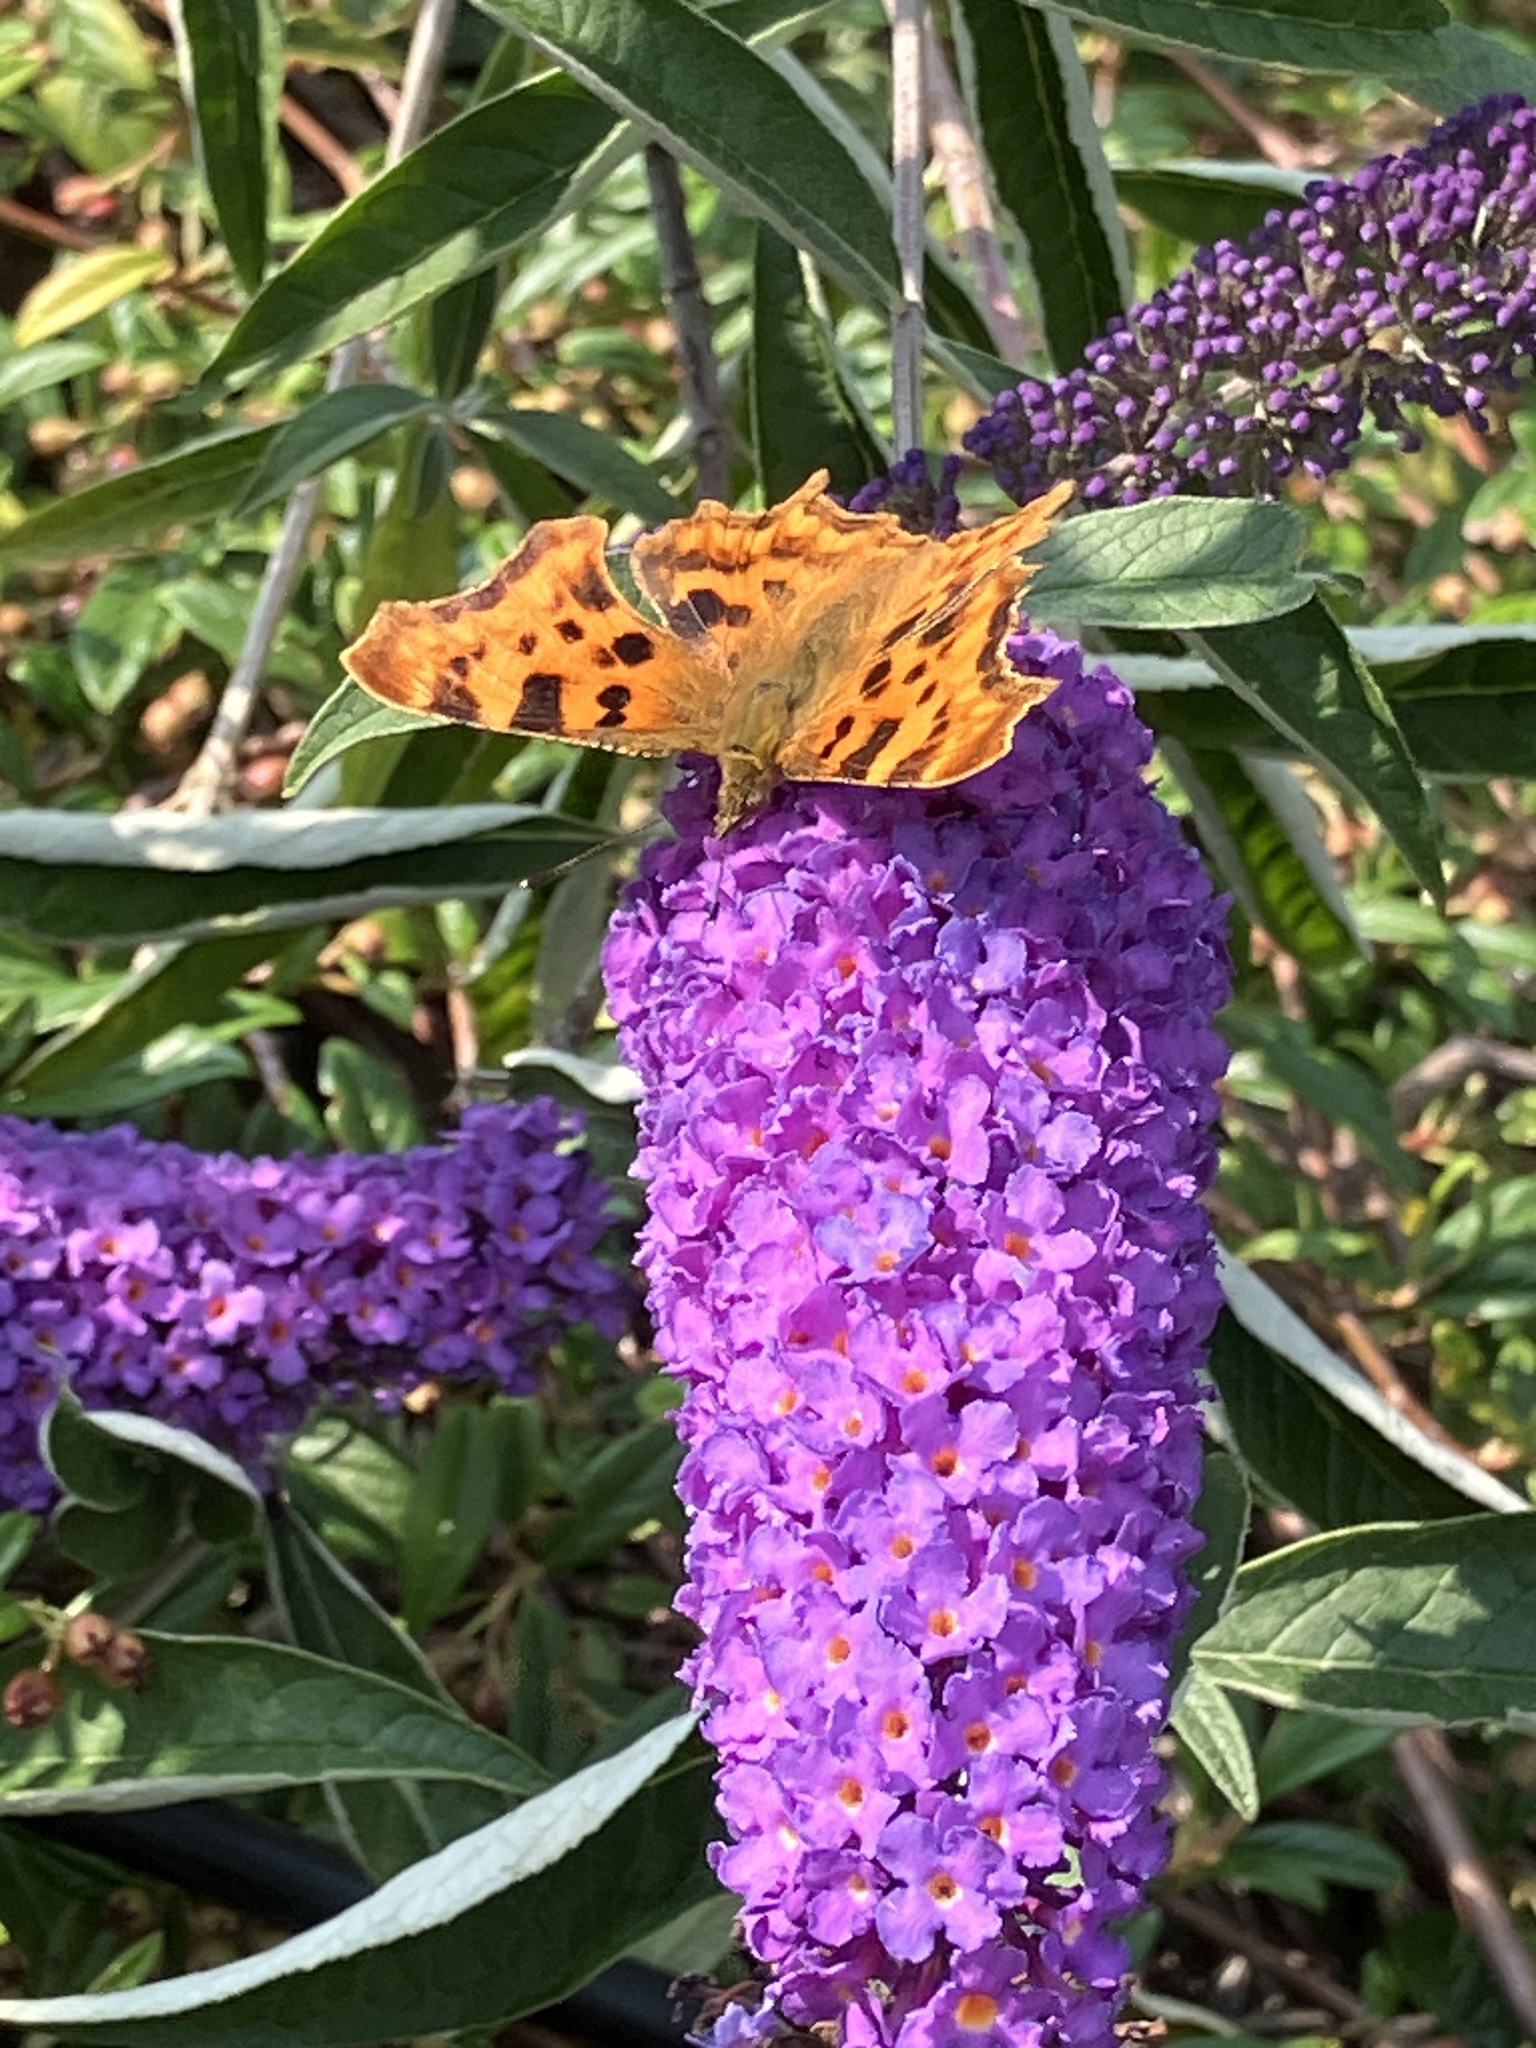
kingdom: Animalia
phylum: Arthropoda
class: Insecta
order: Lepidoptera
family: Nymphalidae
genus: Polygonia
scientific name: Polygonia c-album
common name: Comma
